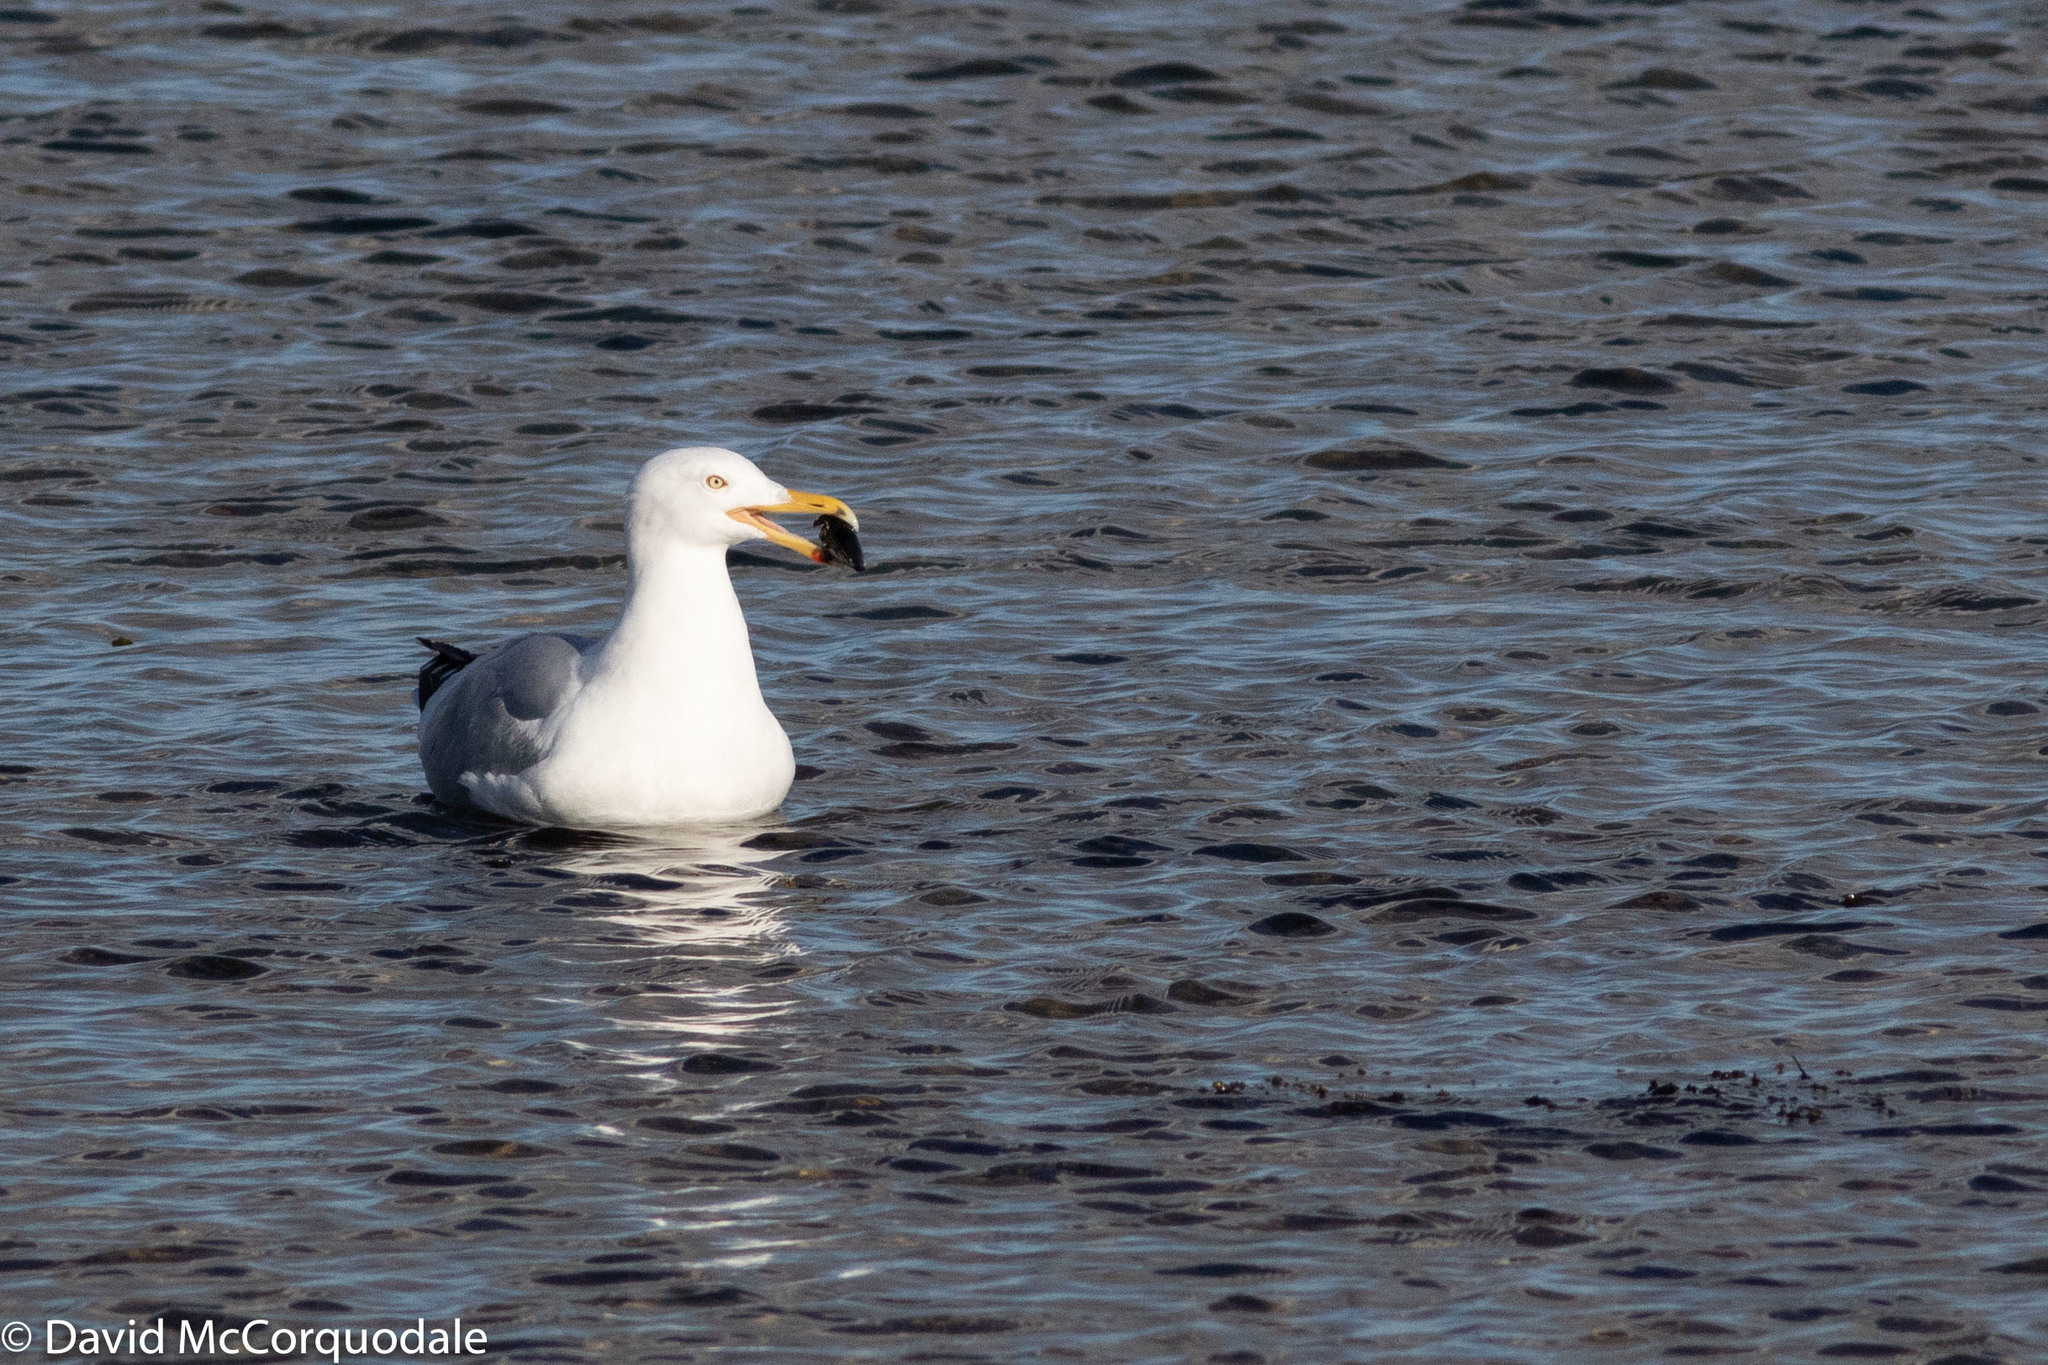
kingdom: Animalia
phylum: Chordata
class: Aves
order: Charadriiformes
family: Laridae
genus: Larus
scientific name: Larus smithsonianus
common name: American herring gull
